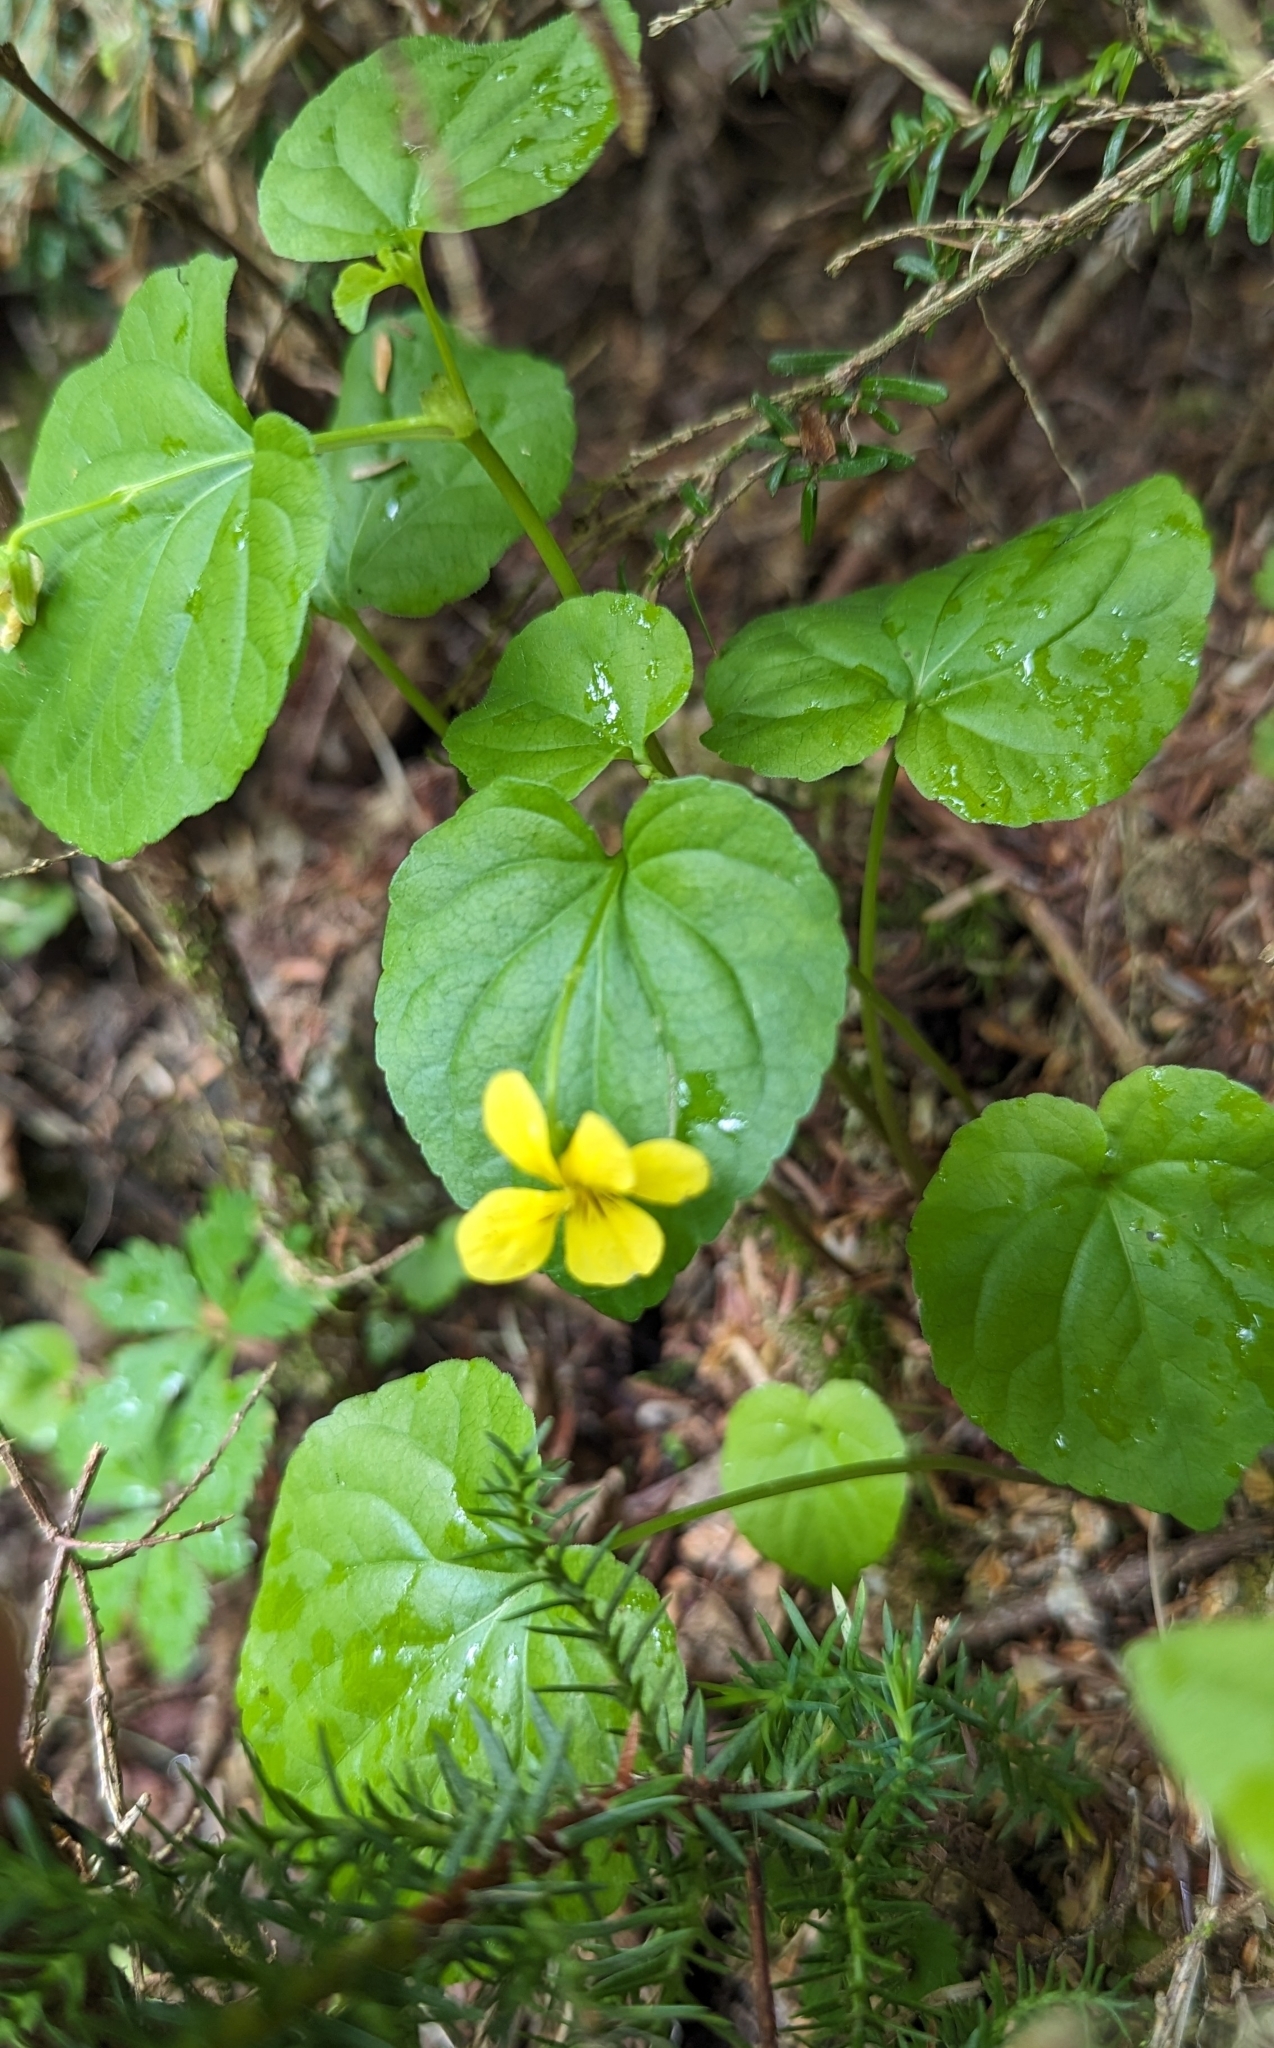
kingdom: Plantae
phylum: Tracheophyta
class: Magnoliopsida
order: Malpighiales
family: Violaceae
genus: Viola
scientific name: Viola glabella
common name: Stream violet
